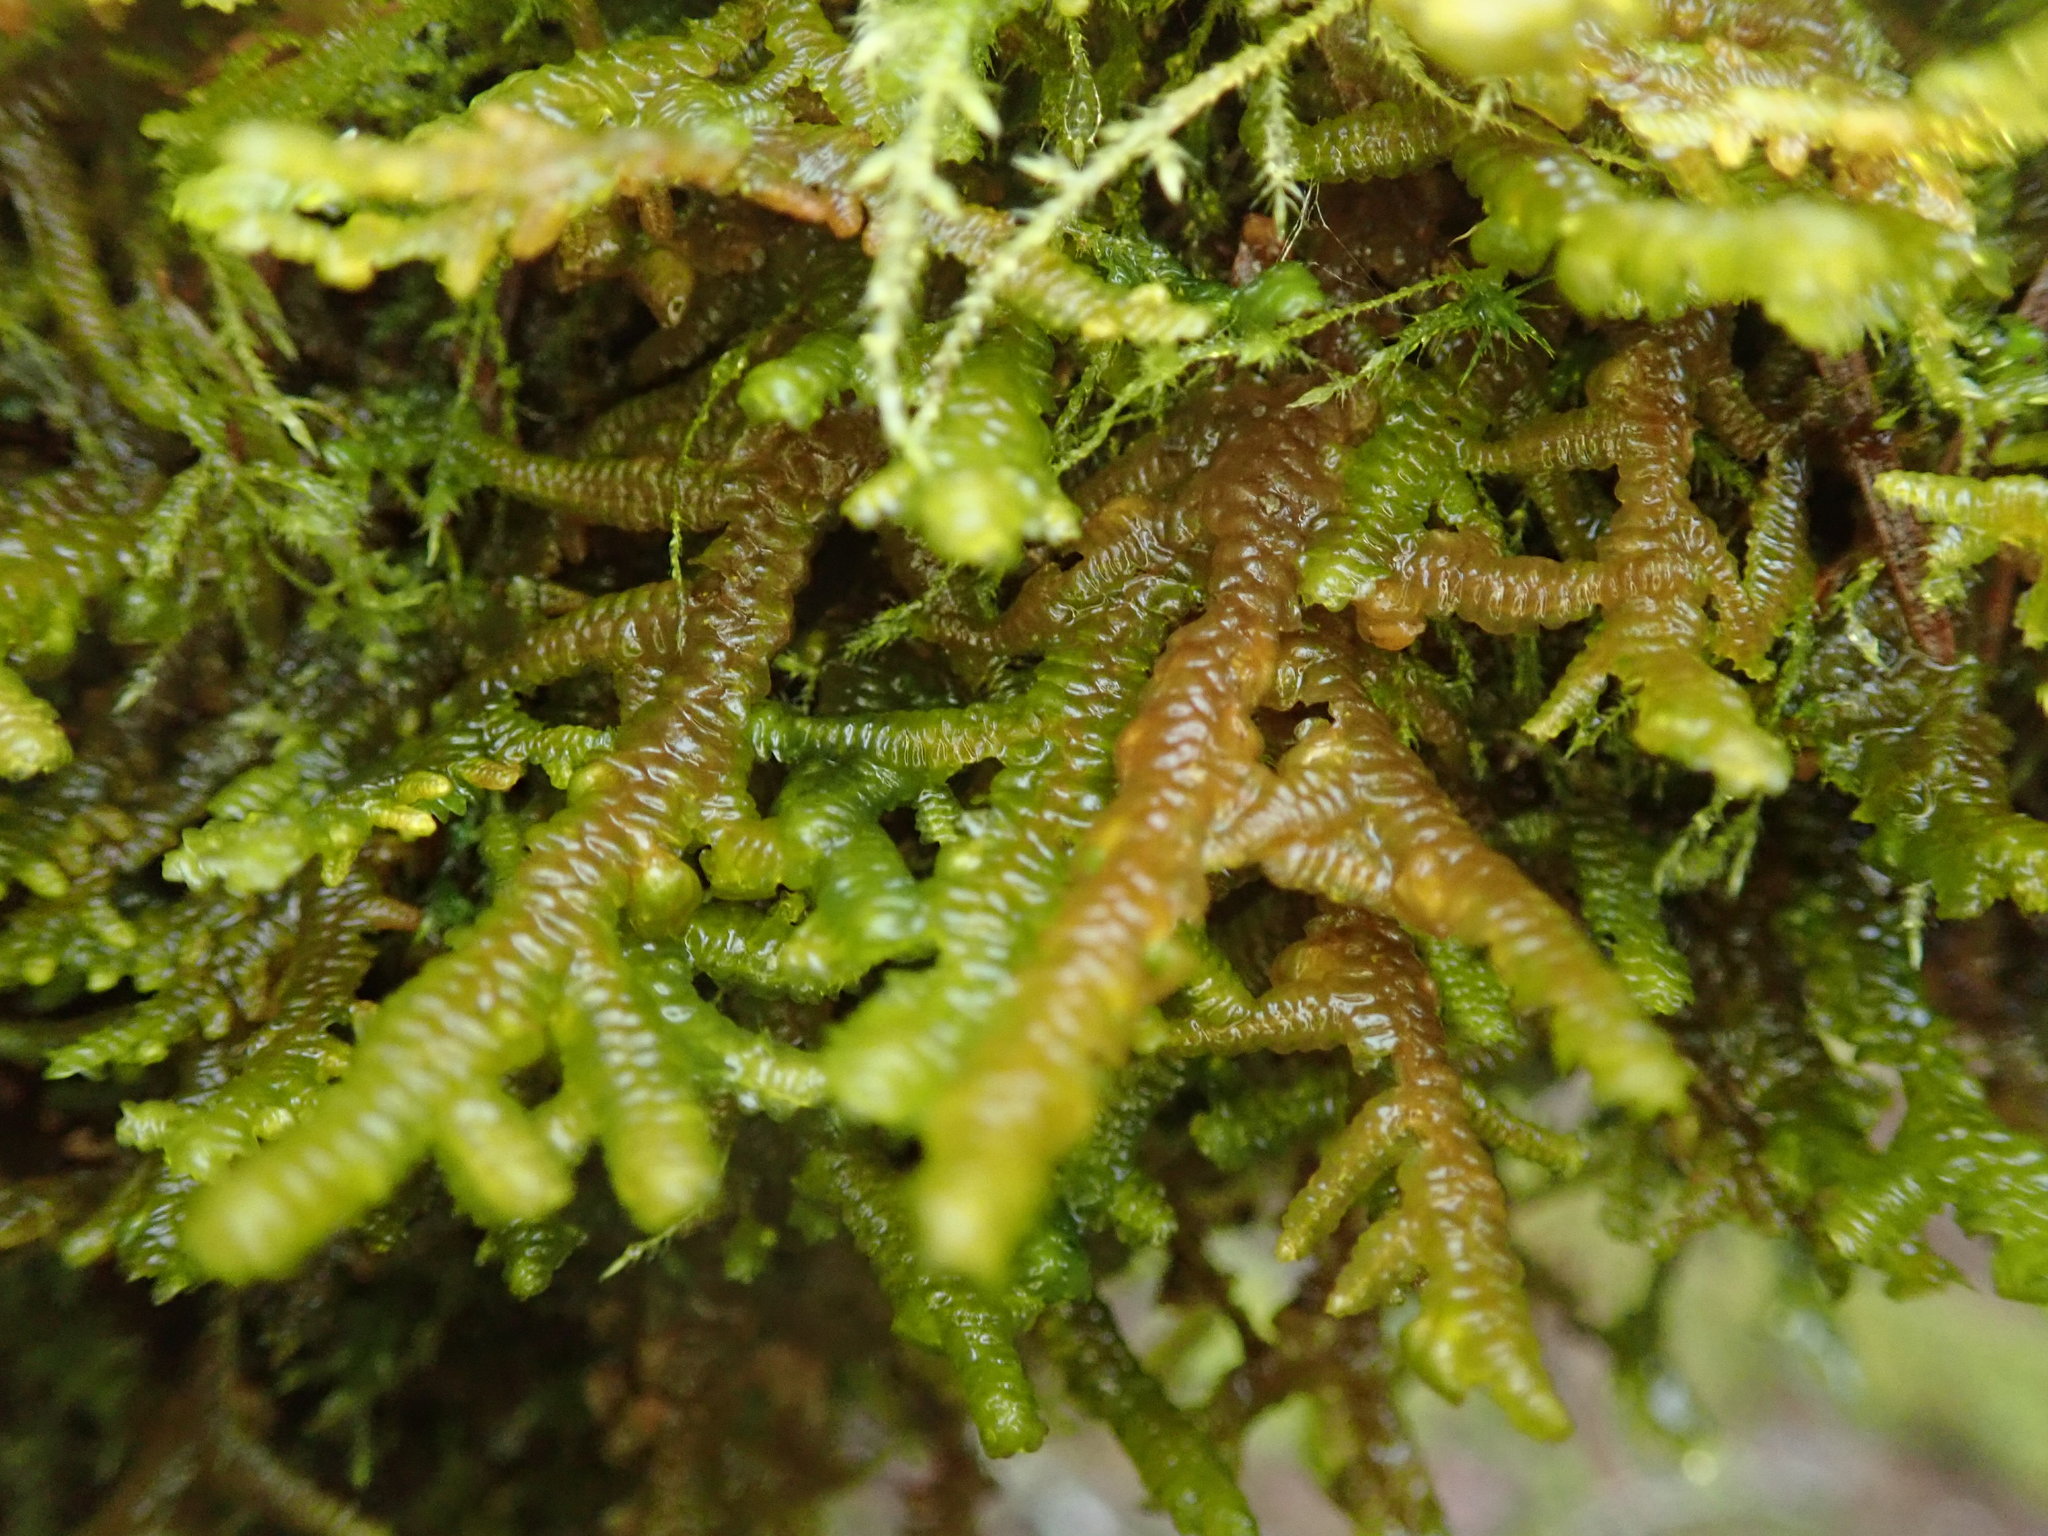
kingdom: Plantae
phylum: Marchantiophyta
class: Jungermanniopsida
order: Porellales
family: Porellaceae
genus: Porella
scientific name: Porella navicularis
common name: Tree ruffle liverwort
